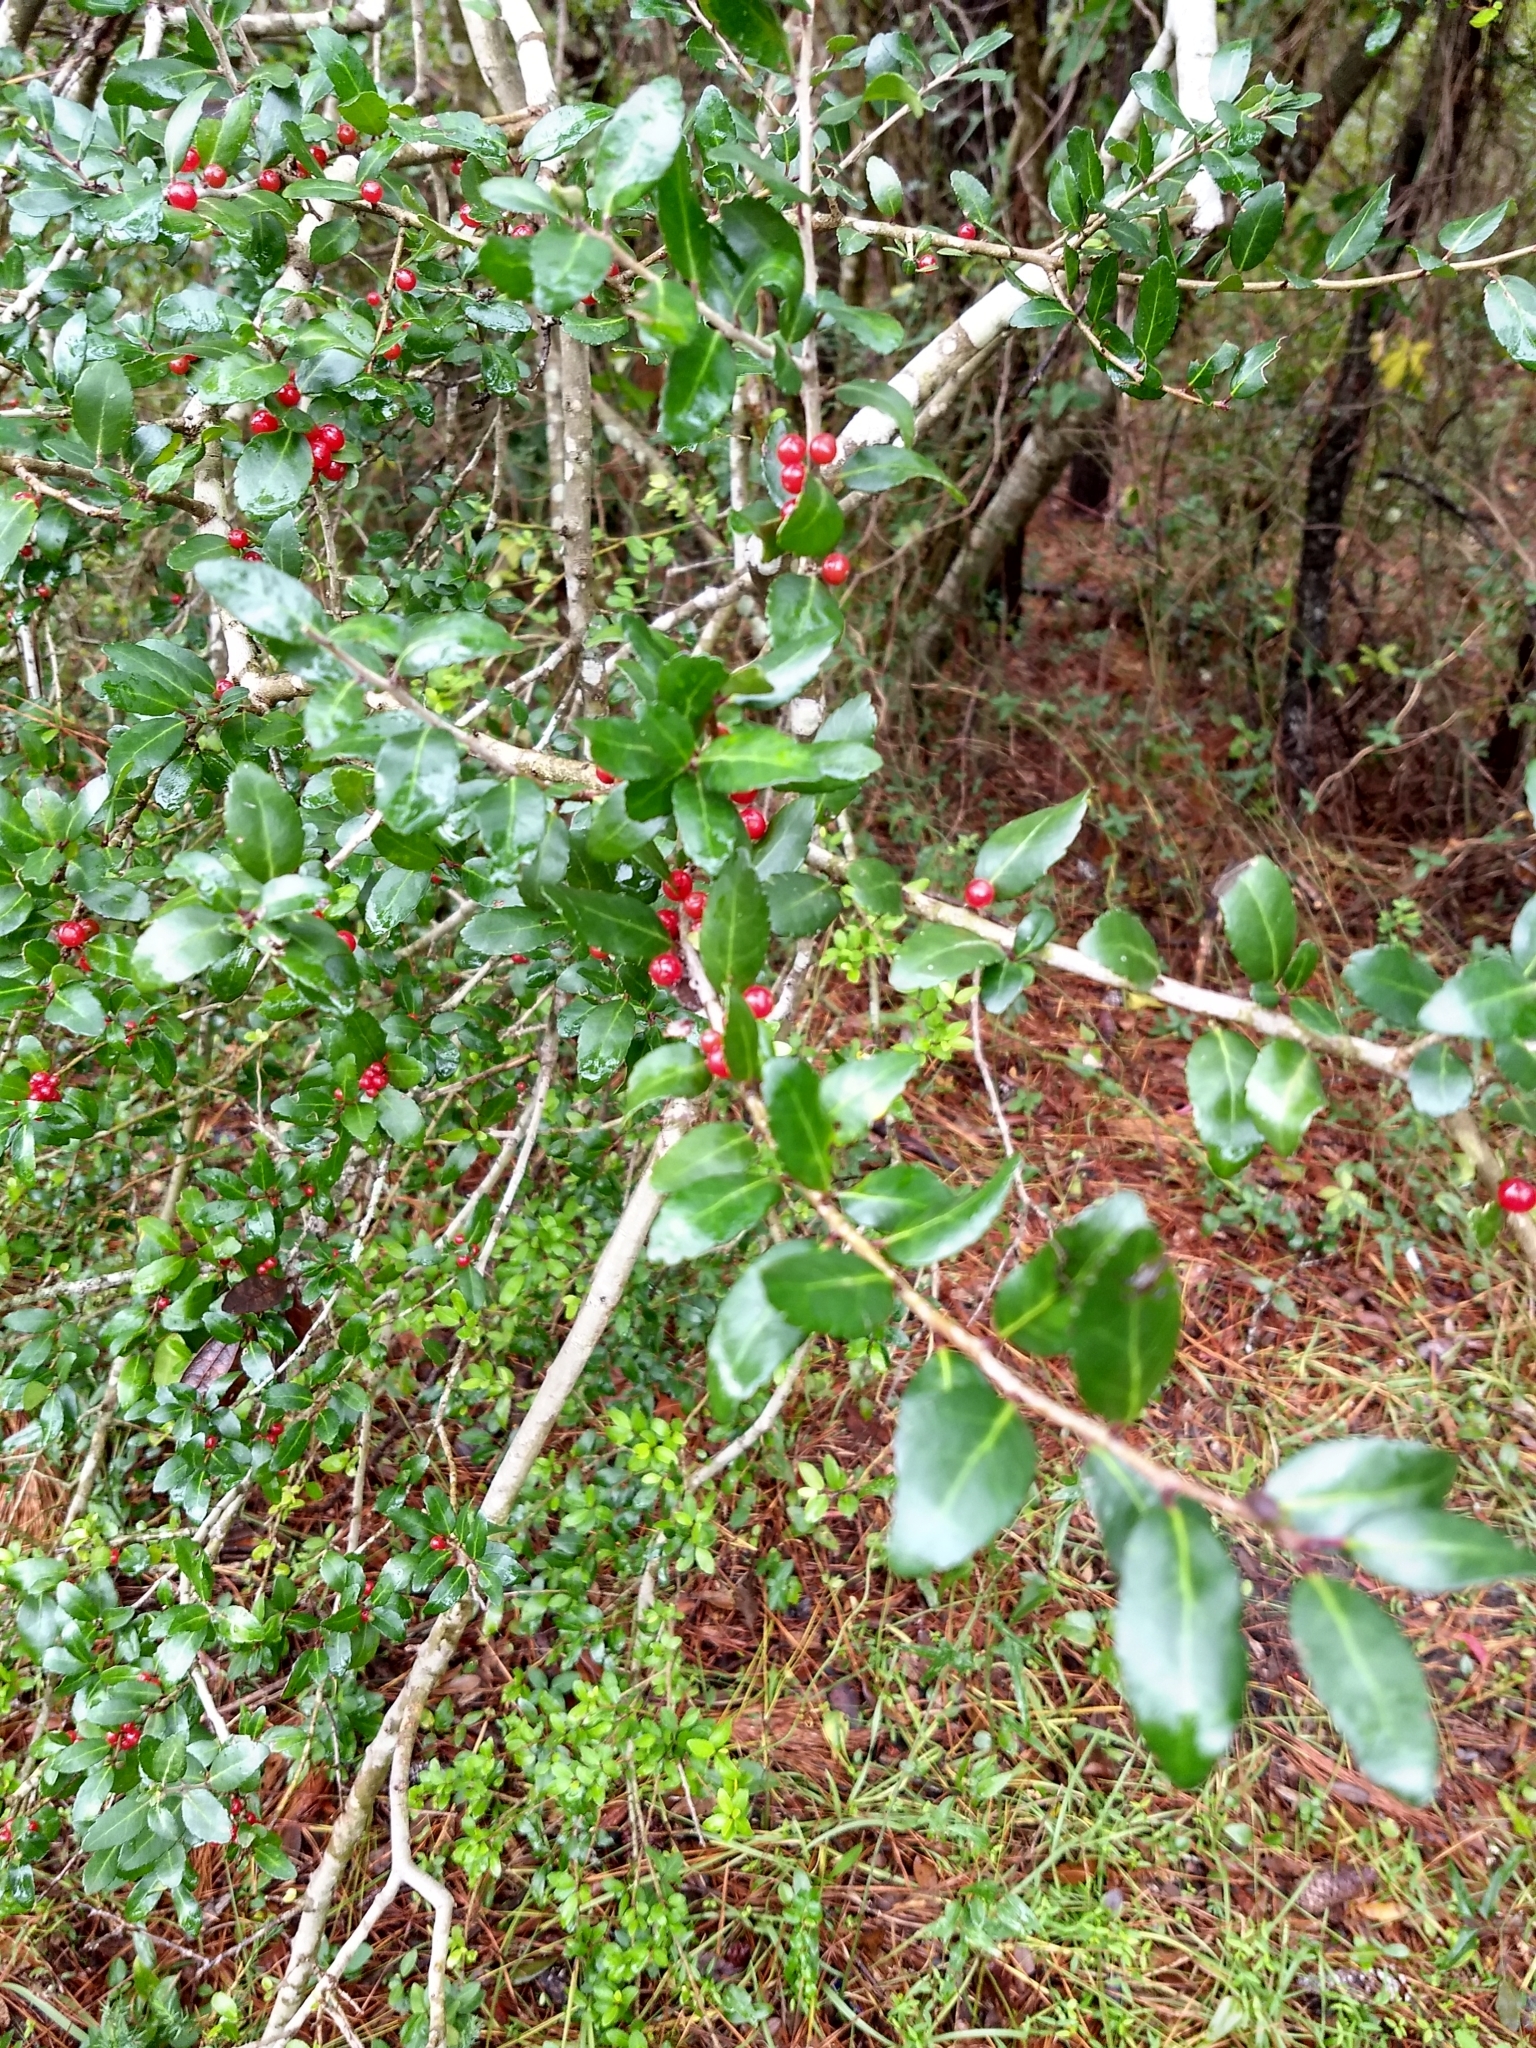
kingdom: Plantae
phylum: Tracheophyta
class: Magnoliopsida
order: Aquifoliales
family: Aquifoliaceae
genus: Ilex
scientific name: Ilex vomitoria
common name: Yaupon holly
